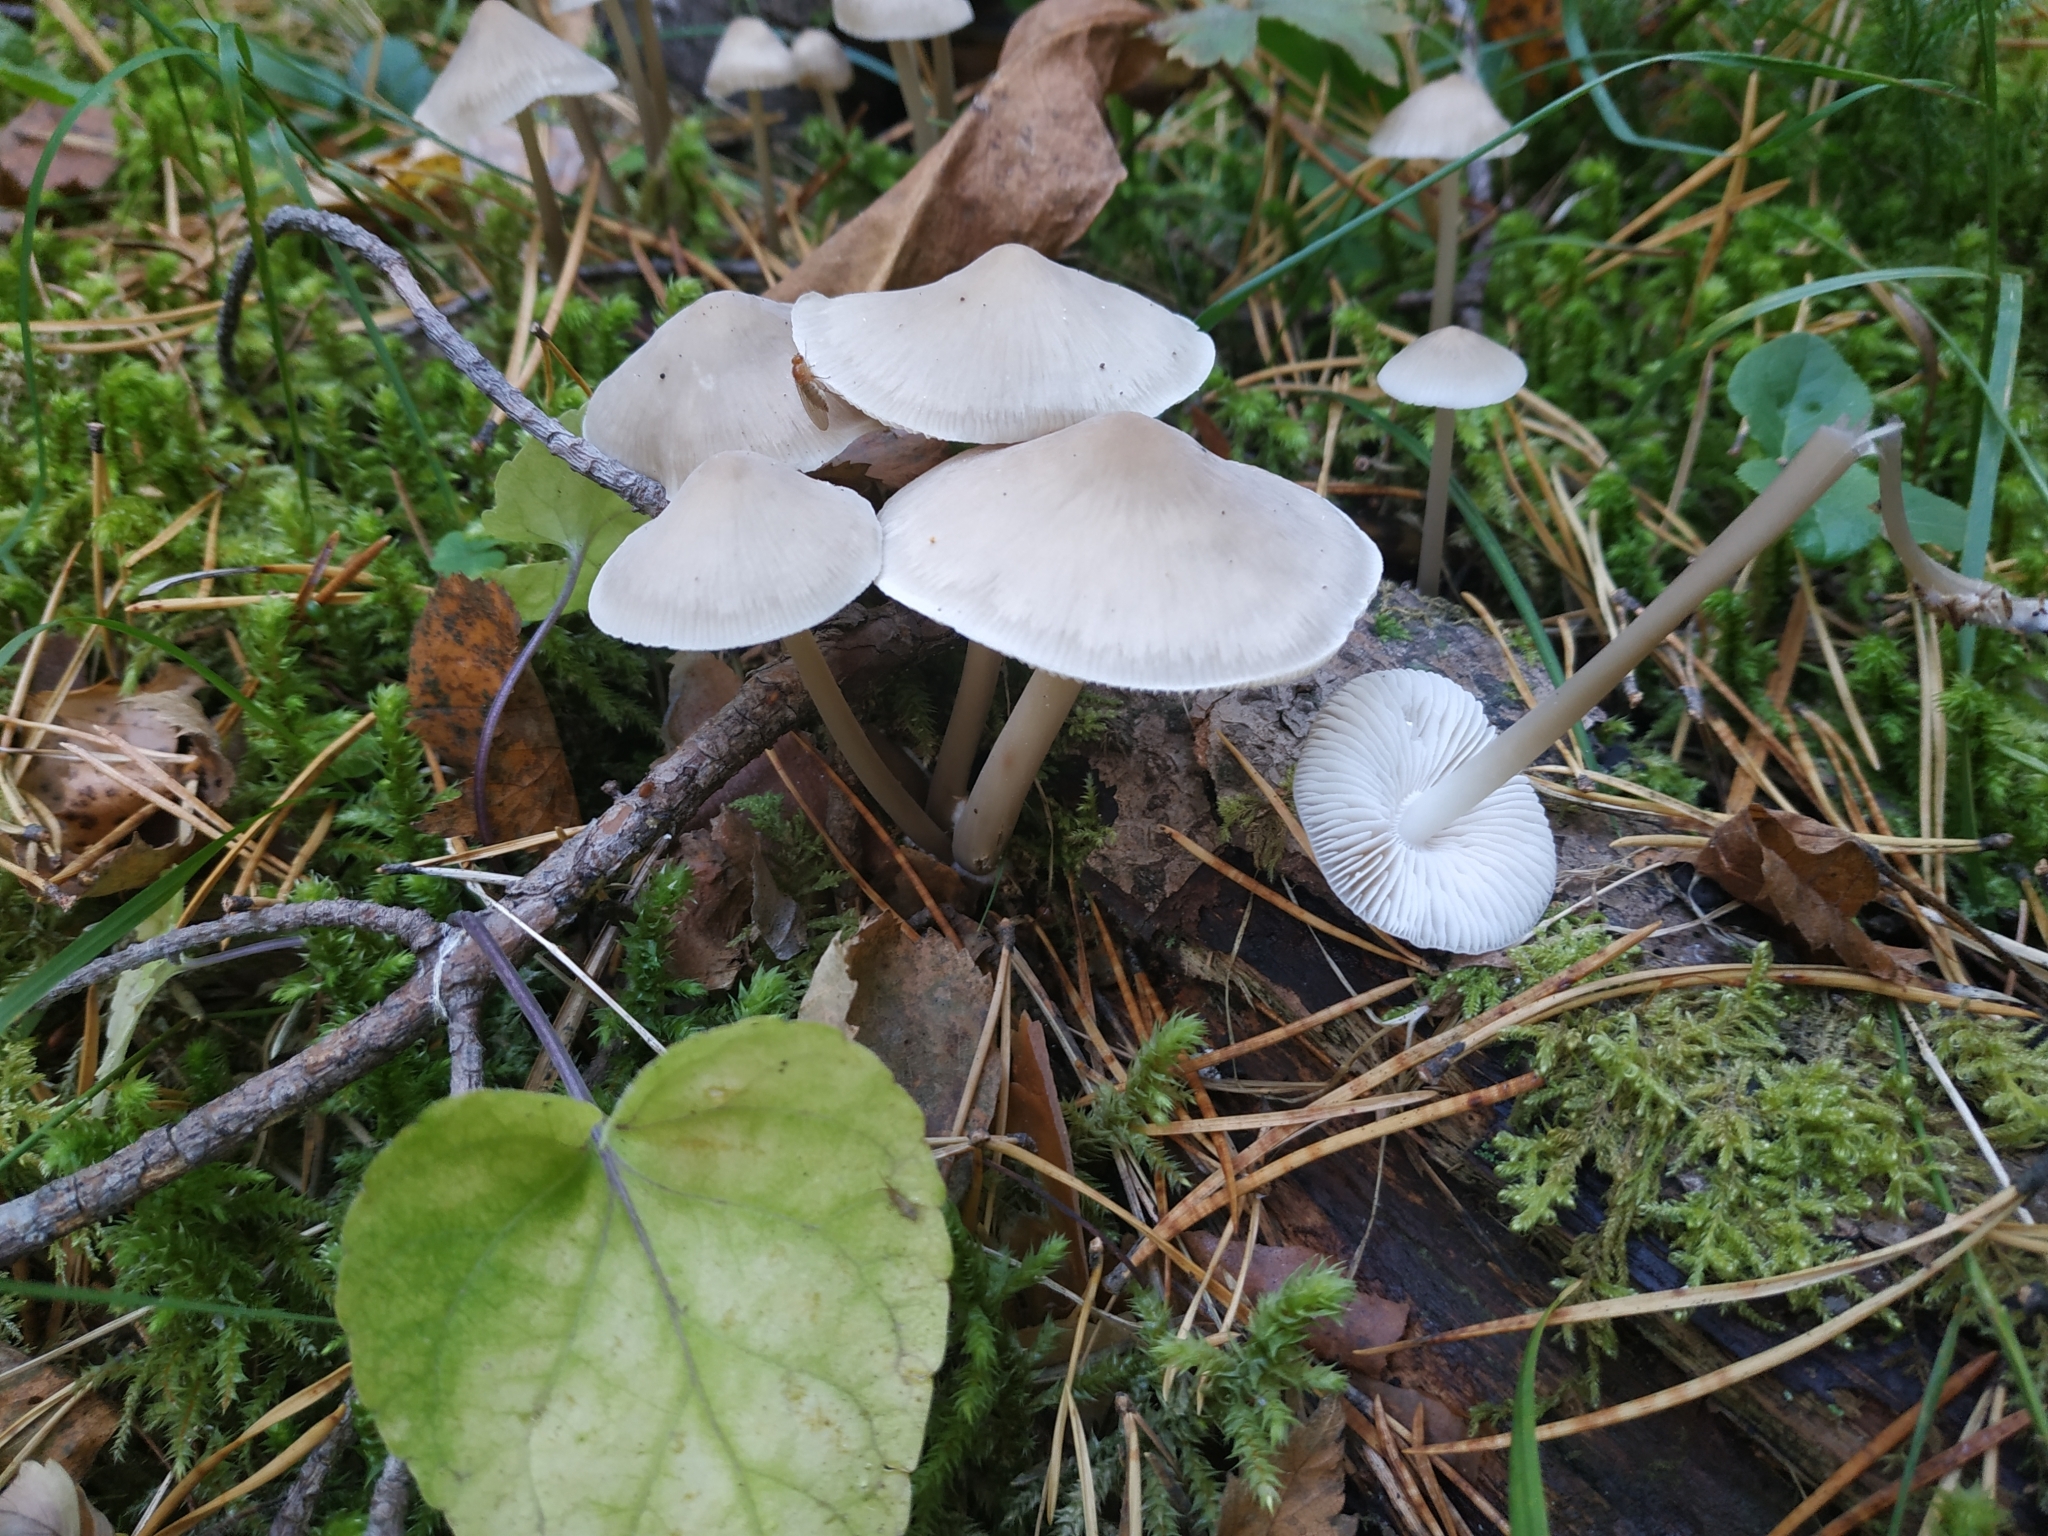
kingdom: Fungi
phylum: Basidiomycota
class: Agaricomycetes
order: Agaricales
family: Mycenaceae
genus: Mycena
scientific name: Mycena galericulata
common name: Bonnet mycena
